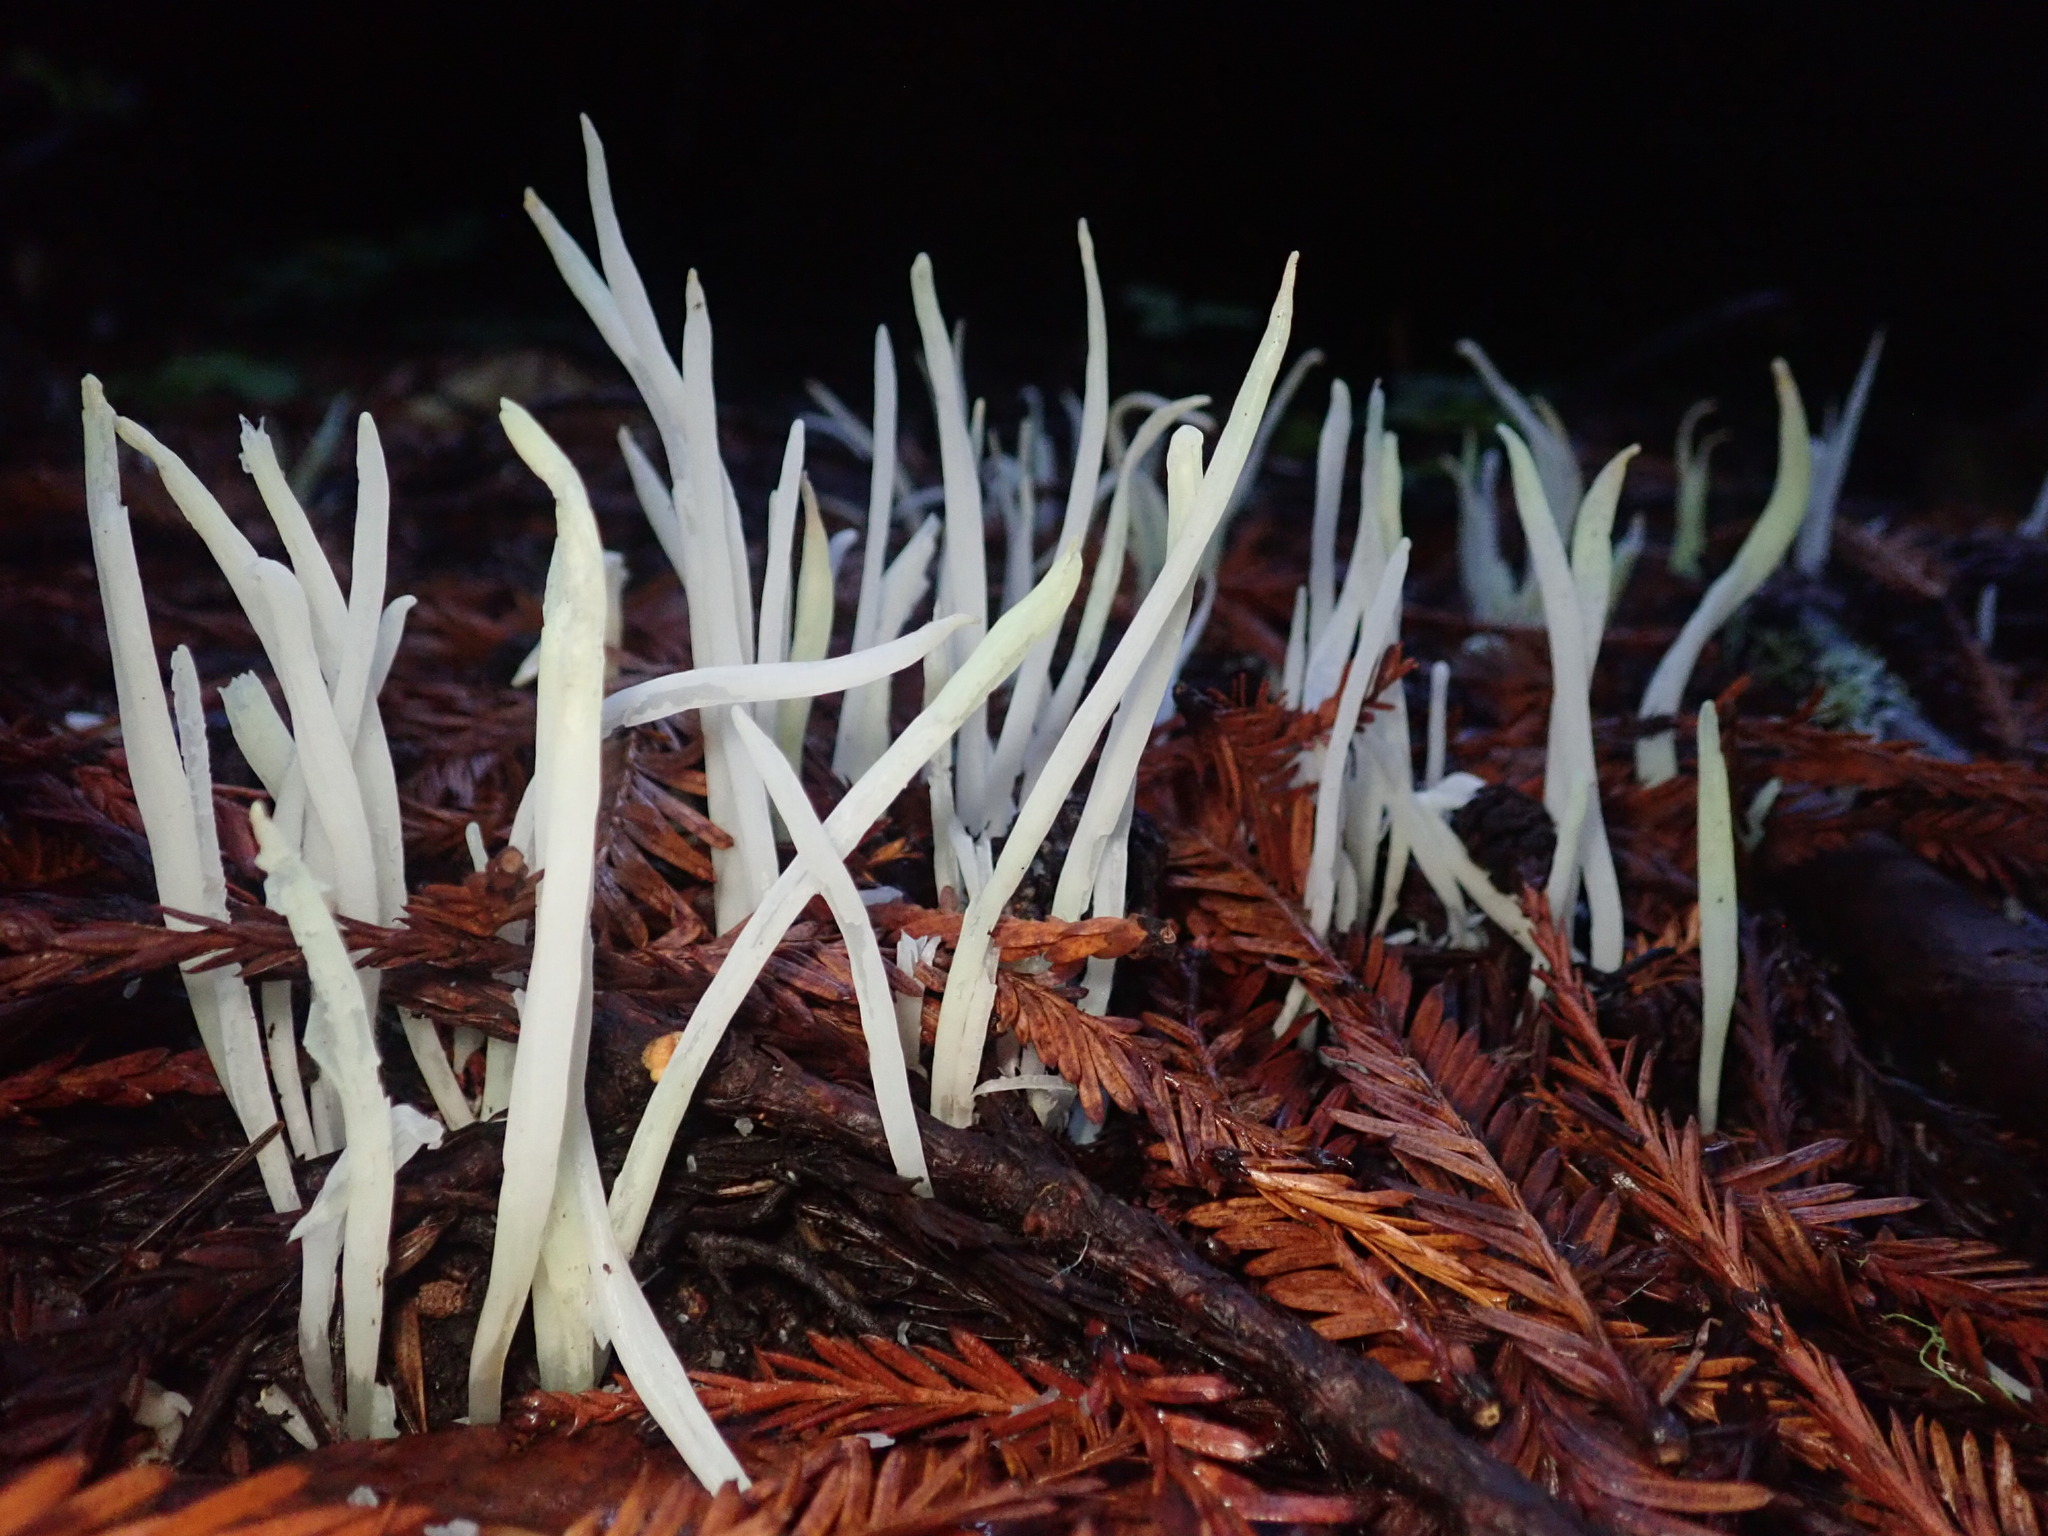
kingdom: Fungi
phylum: Basidiomycota
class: Agaricomycetes
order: Agaricales
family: Clavariaceae
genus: Clavaria
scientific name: Clavaria fragilis
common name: White spindles
